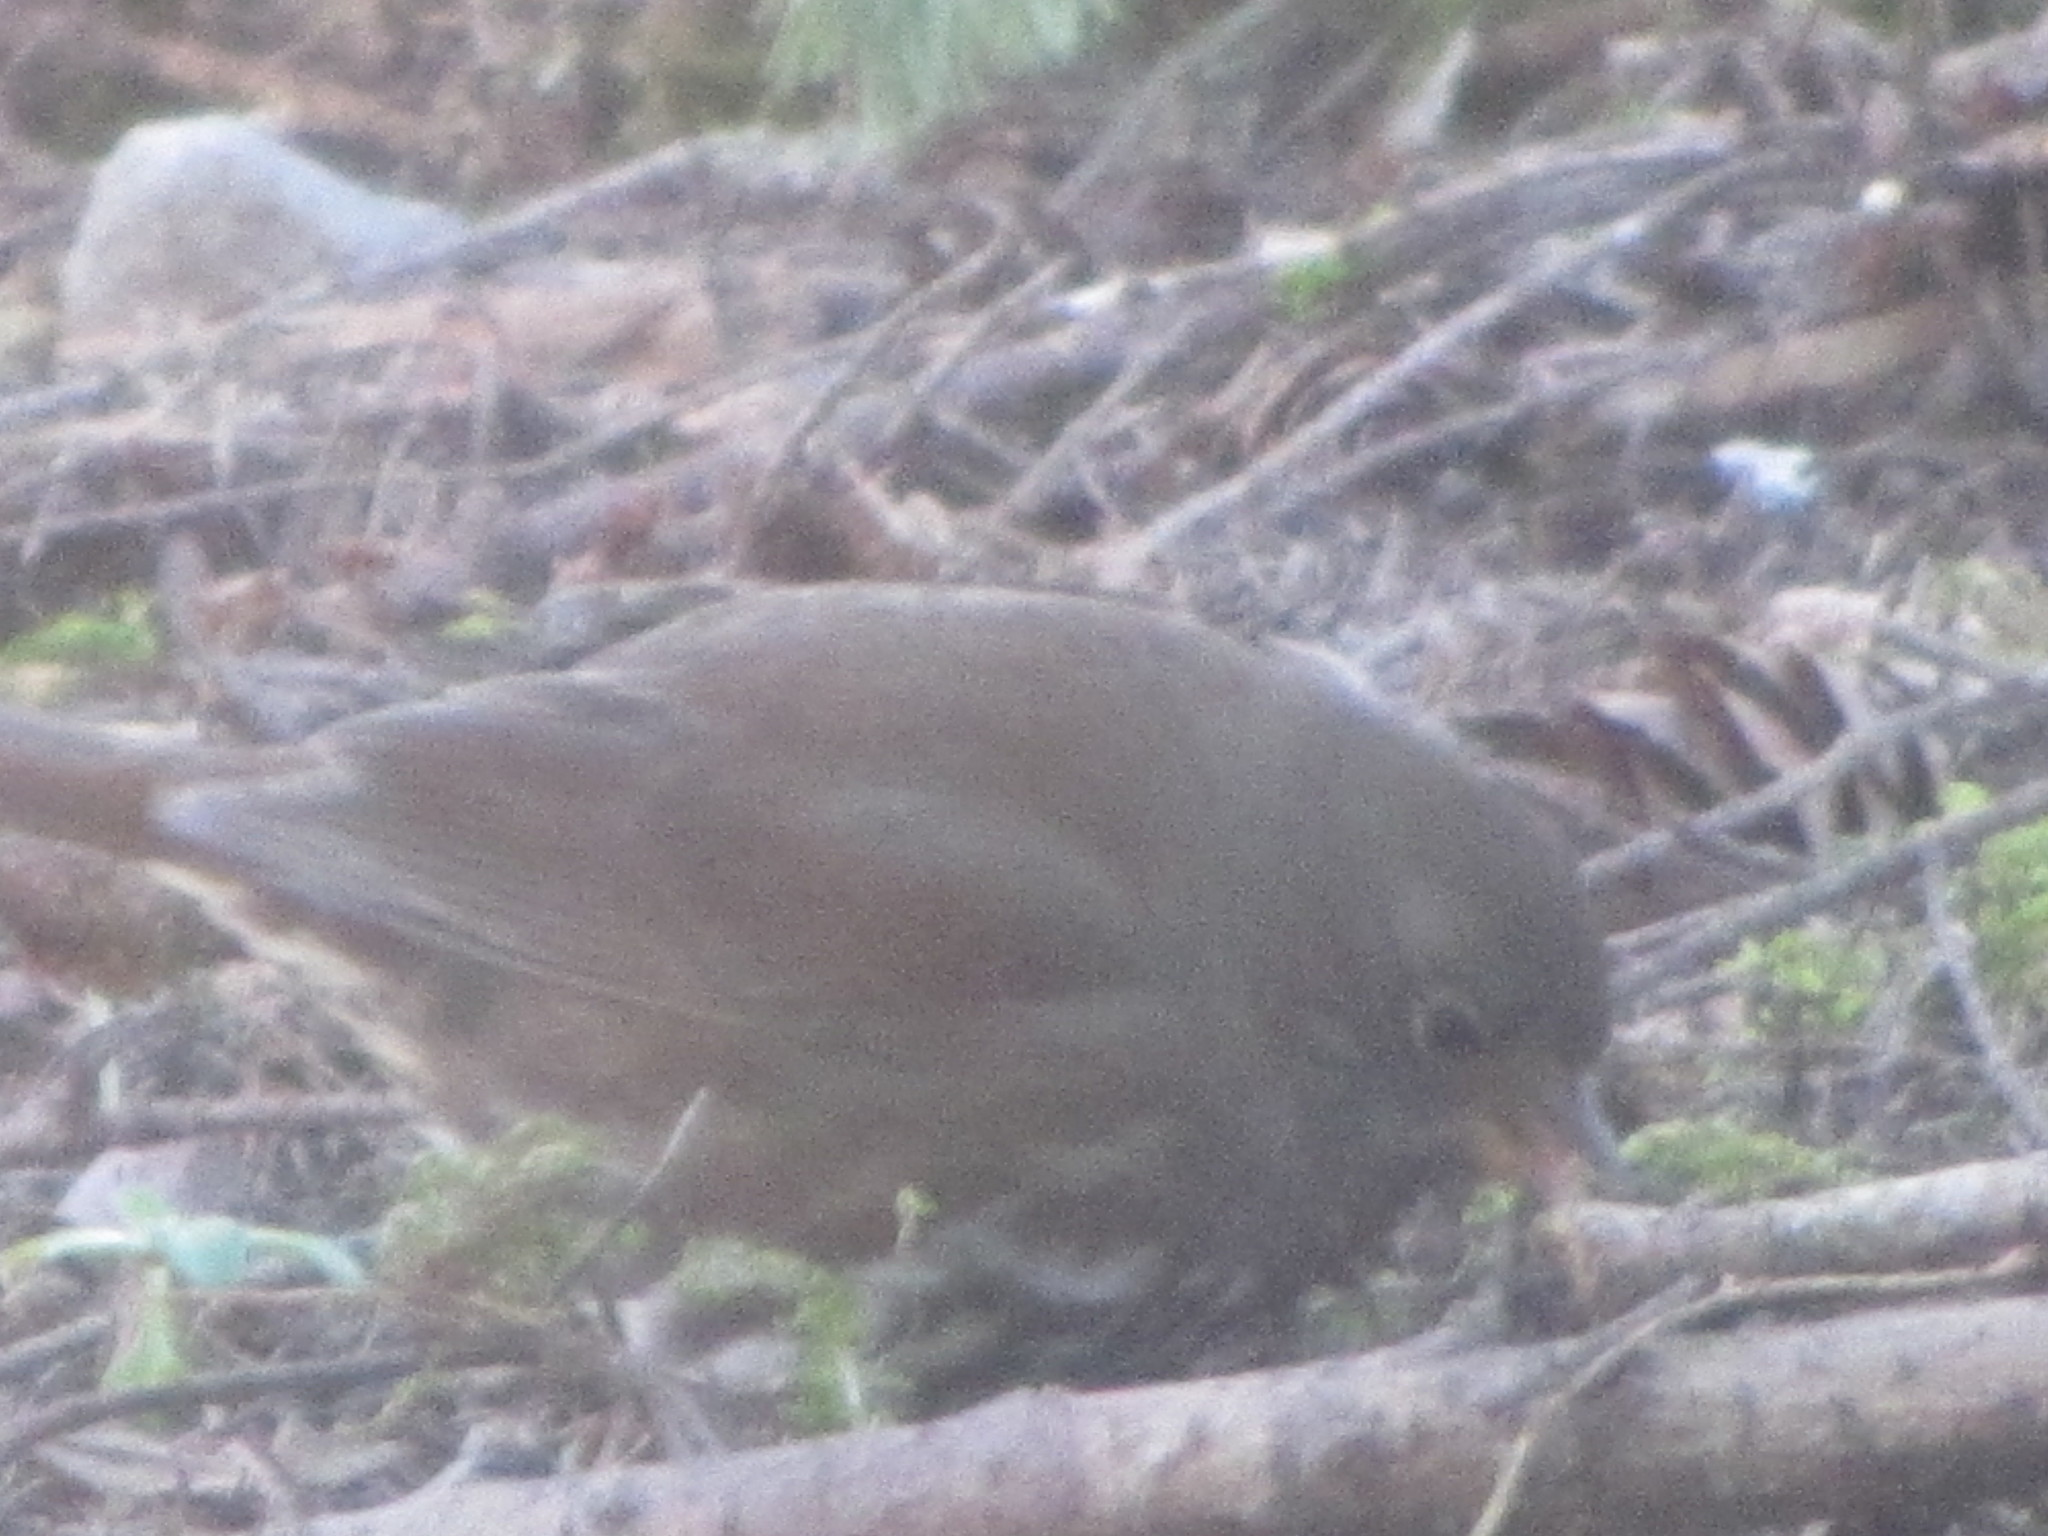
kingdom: Animalia
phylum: Chordata
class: Aves
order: Passeriformes
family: Passerellidae
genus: Passerella
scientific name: Passerella iliaca
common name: Fox sparrow
